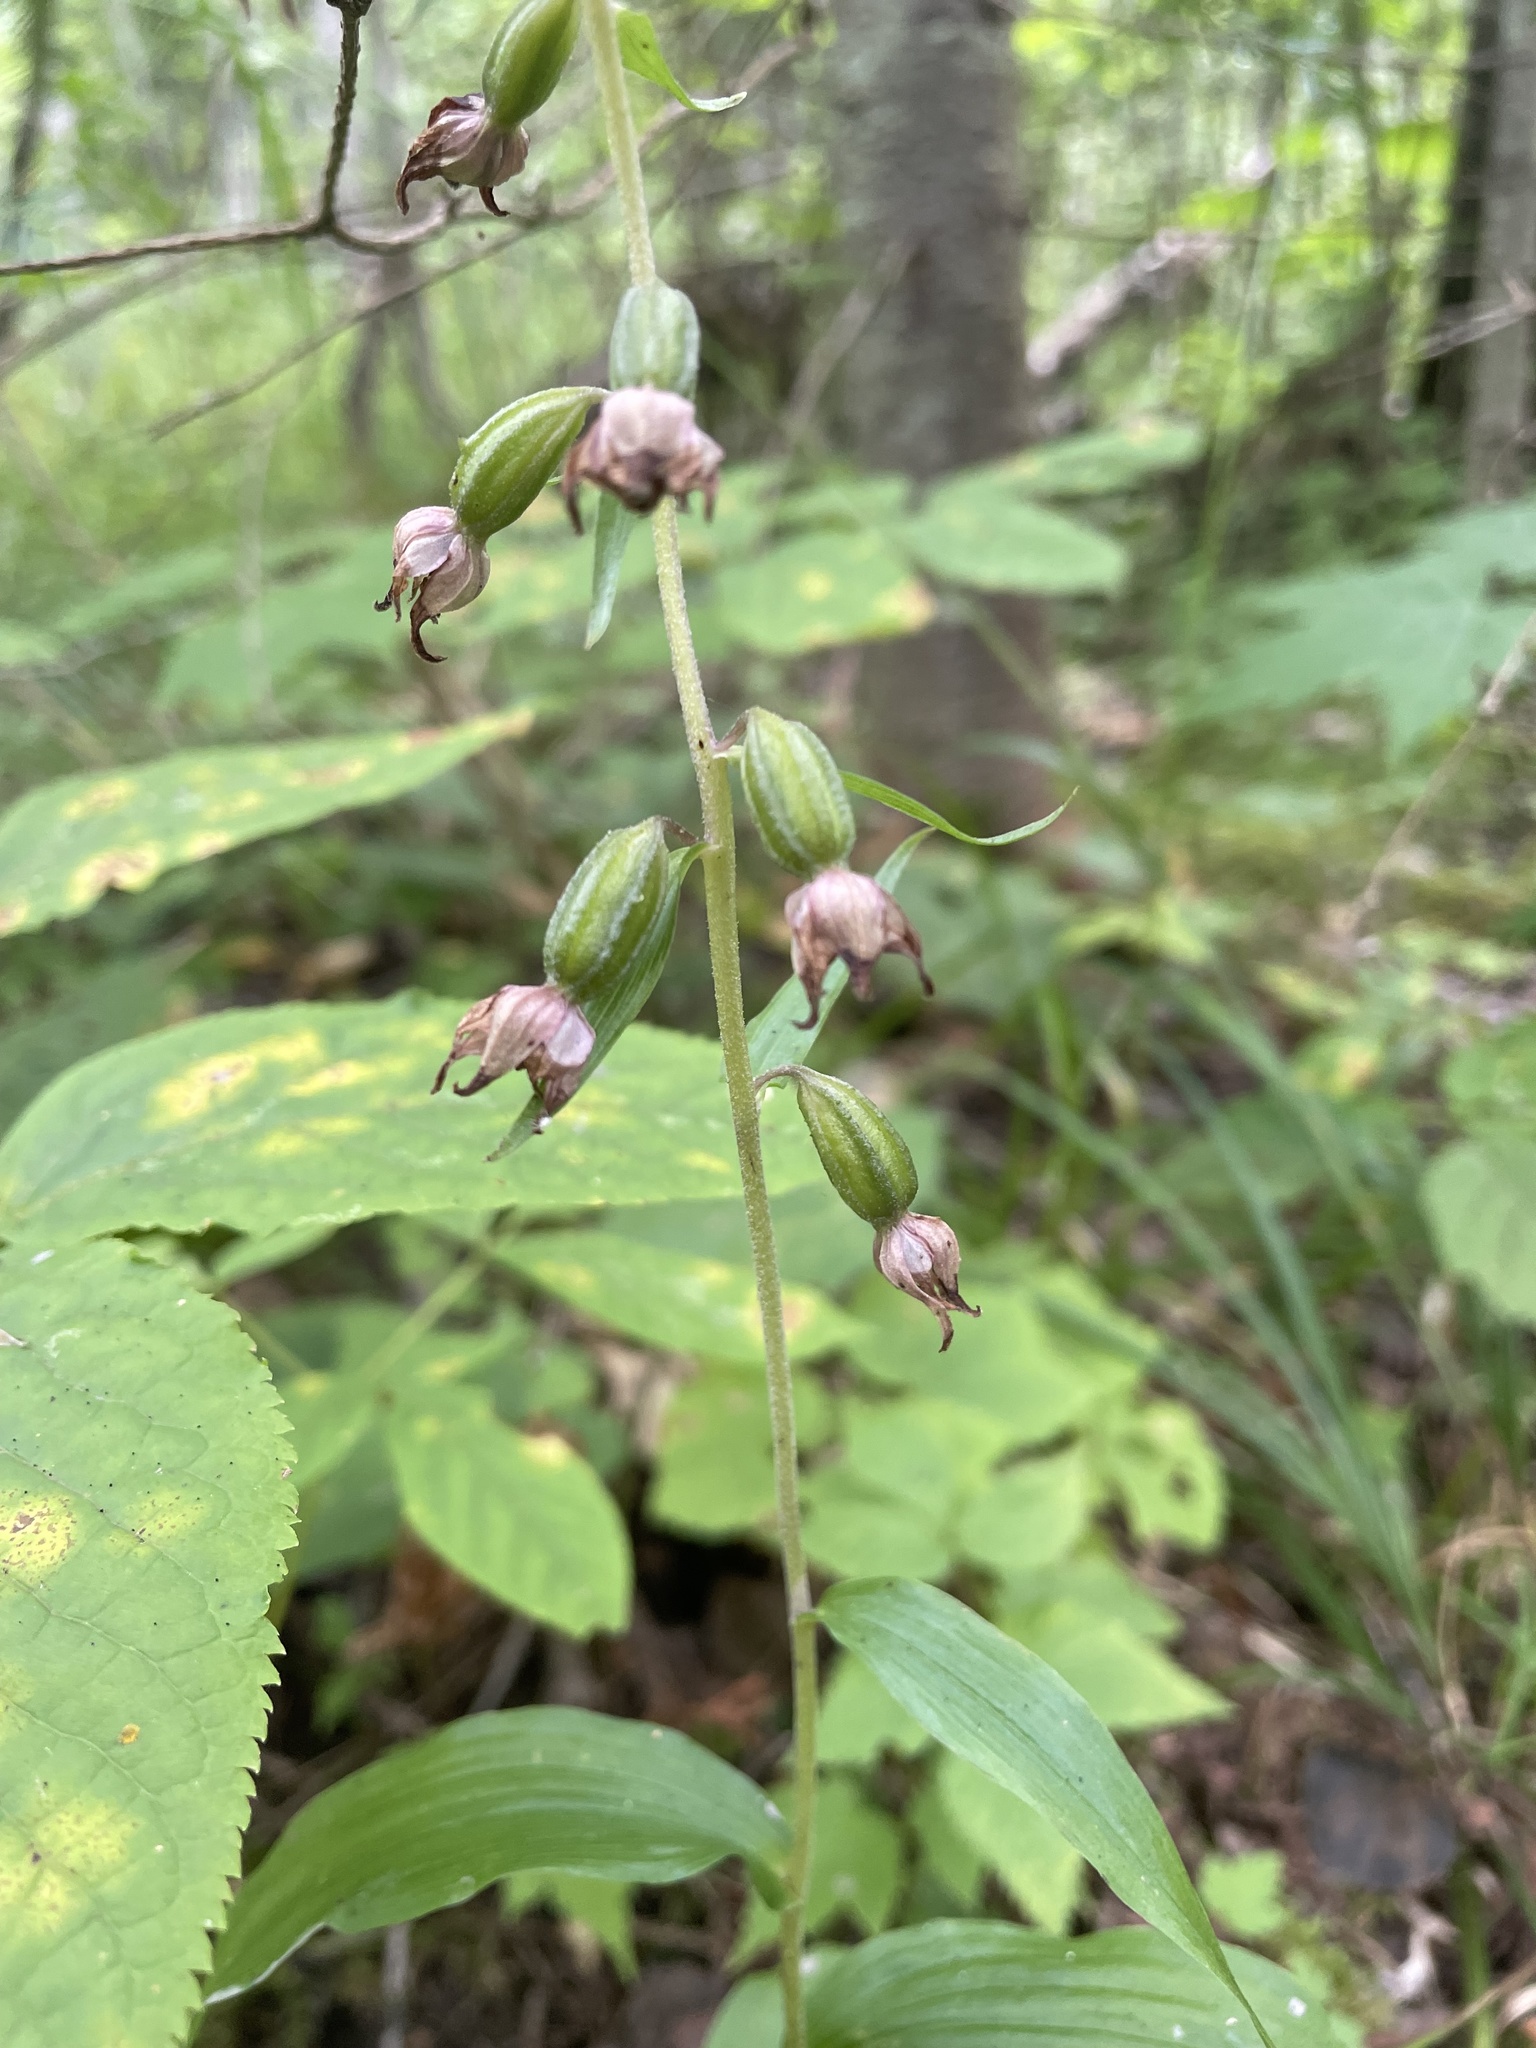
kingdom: Plantae
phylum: Tracheophyta
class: Liliopsida
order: Asparagales
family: Orchidaceae
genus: Epipactis
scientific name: Epipactis helleborine
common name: Broad-leaved helleborine
